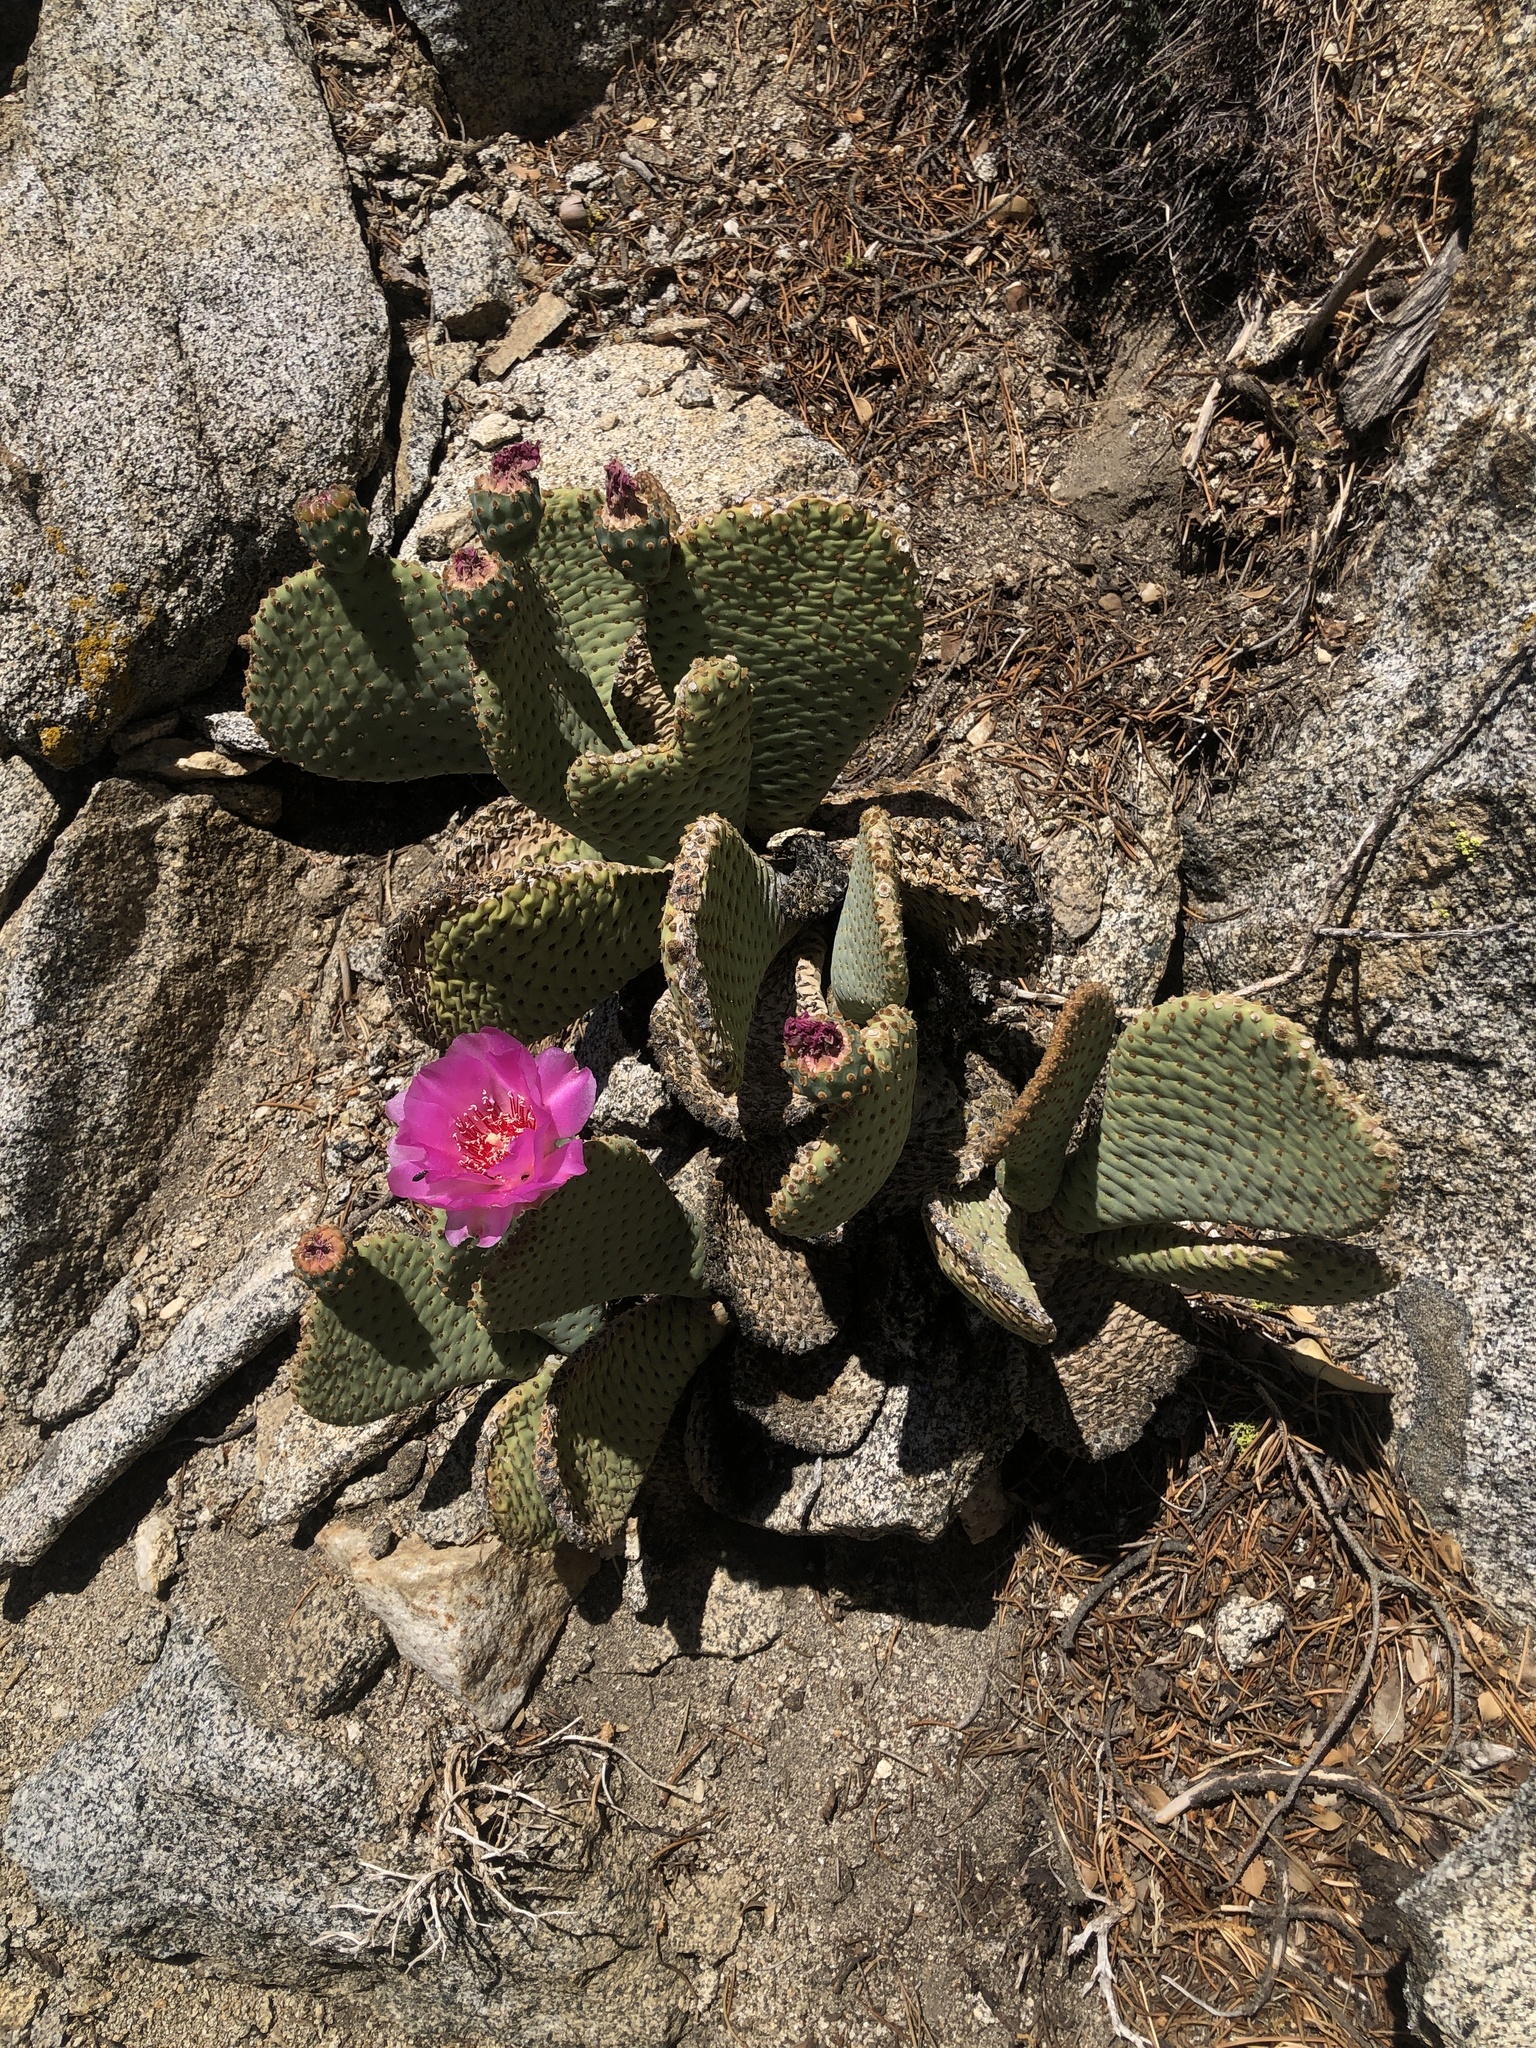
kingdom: Plantae
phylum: Tracheophyta
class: Magnoliopsida
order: Caryophyllales
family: Cactaceae
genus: Opuntia
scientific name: Opuntia basilaris
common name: Beavertail prickly-pear
